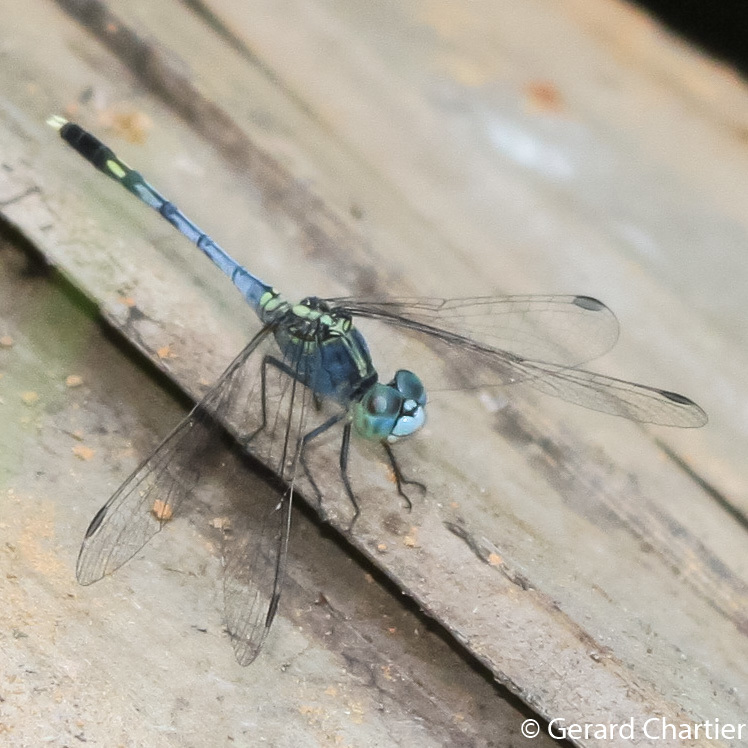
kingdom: Animalia
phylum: Arthropoda
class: Insecta
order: Odonata
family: Libellulidae
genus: Diplacodes
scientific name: Diplacodes trivialis
